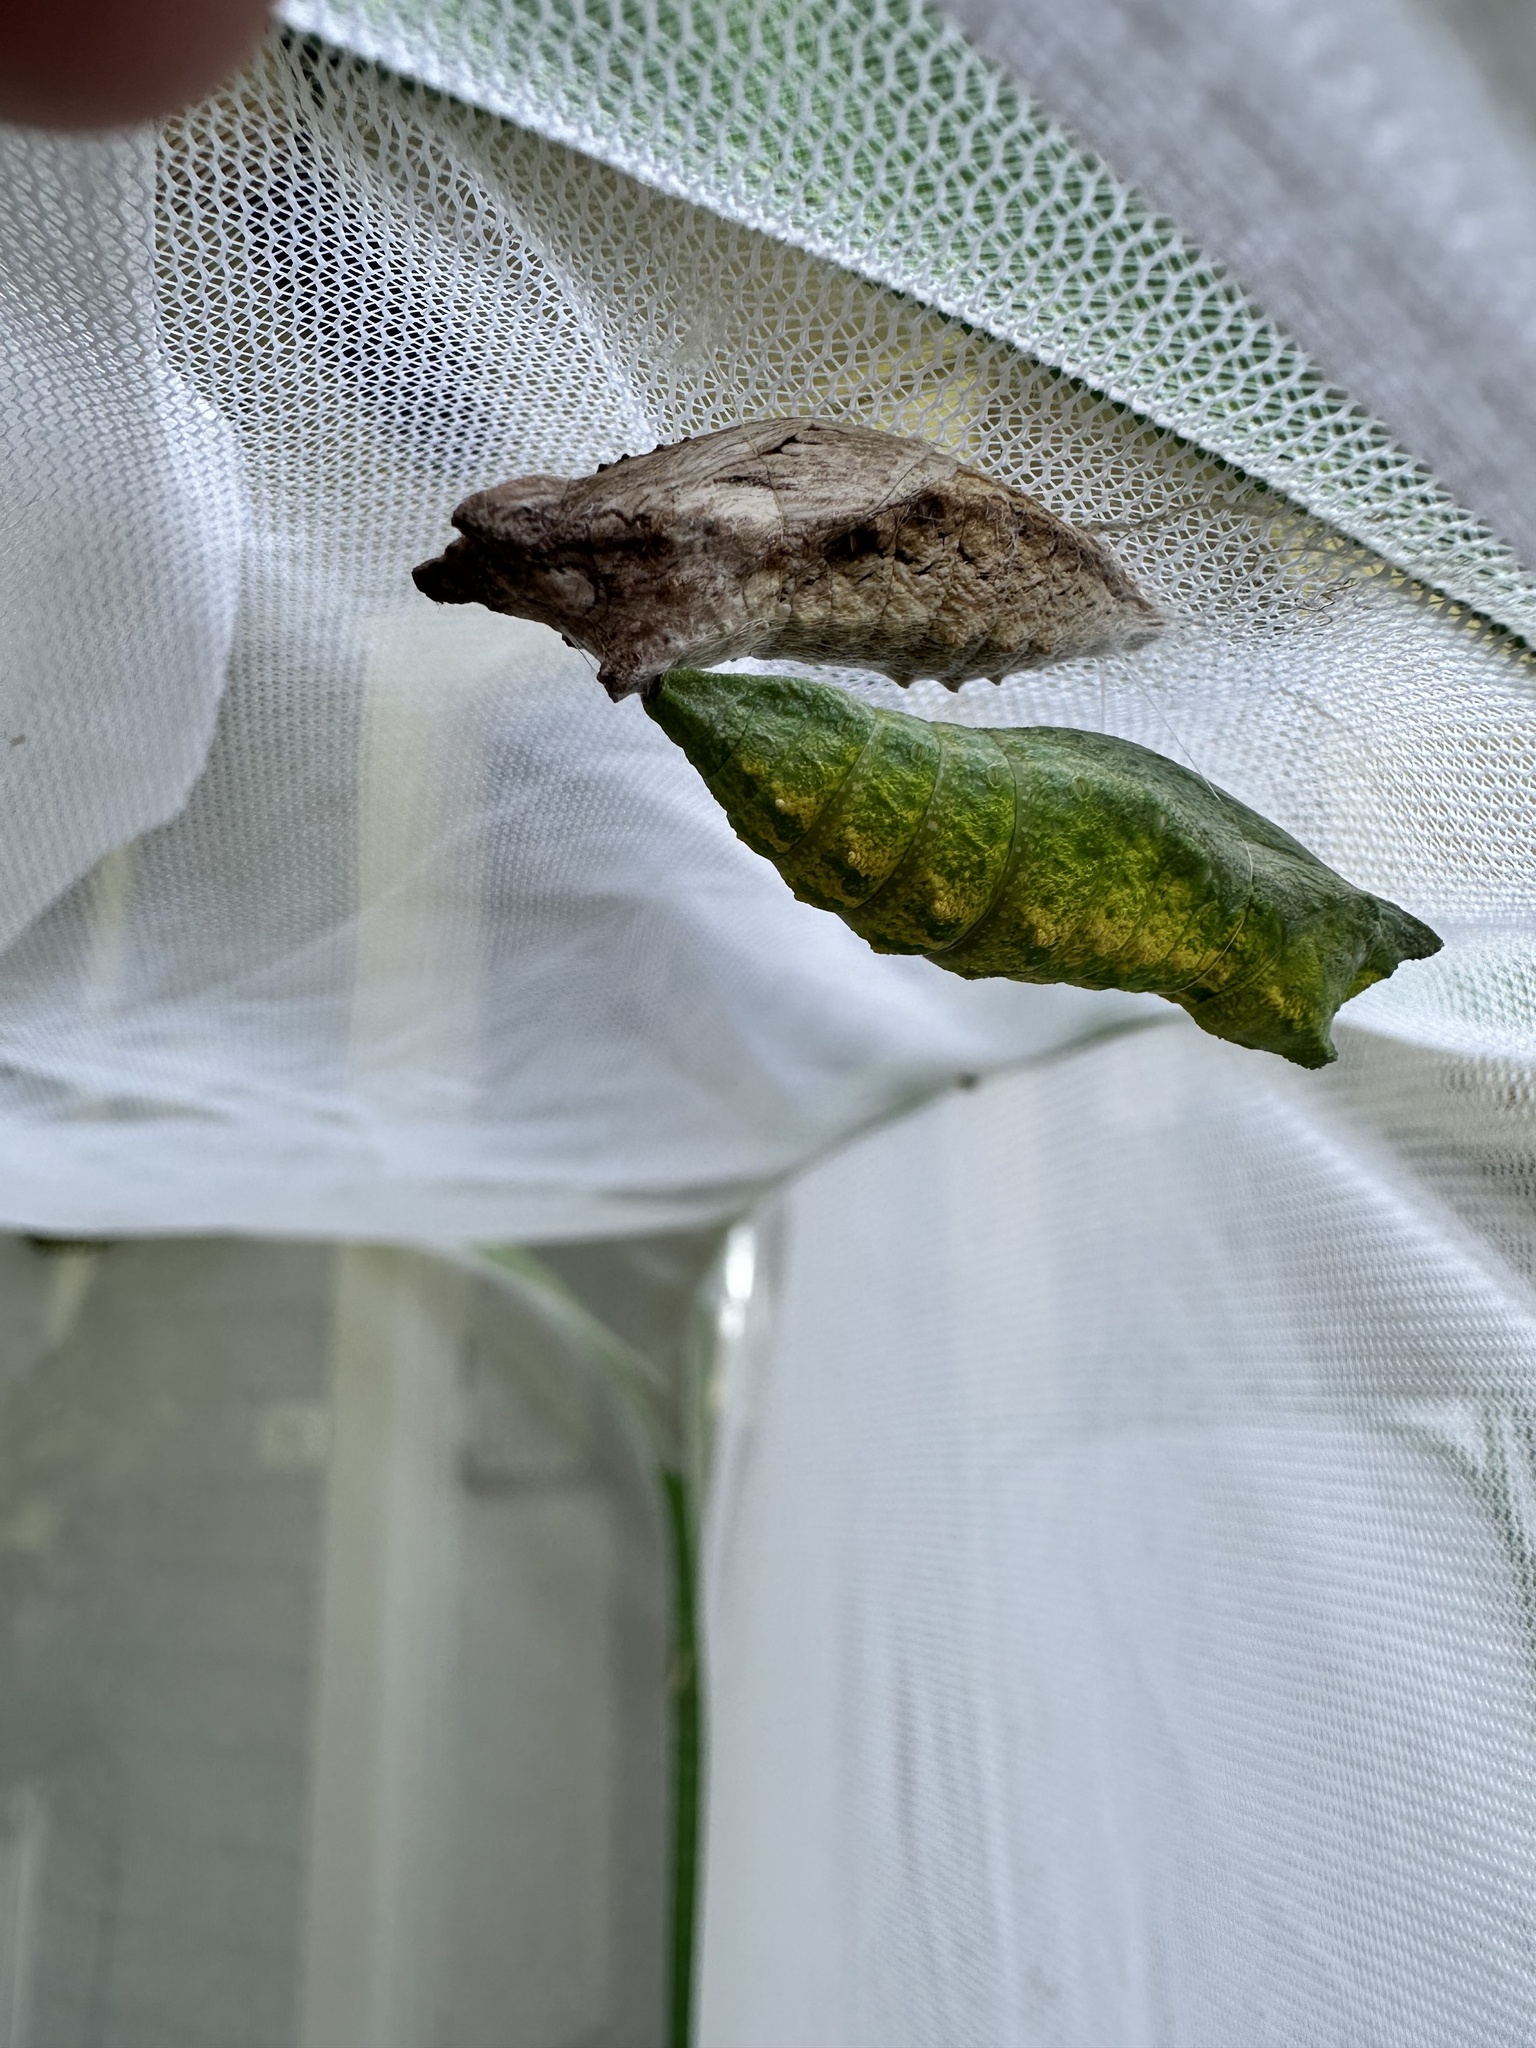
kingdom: Animalia
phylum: Arthropoda
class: Insecta
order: Lepidoptera
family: Papilionidae
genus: Papilio
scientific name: Papilio polyxenes
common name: Black swallowtail
